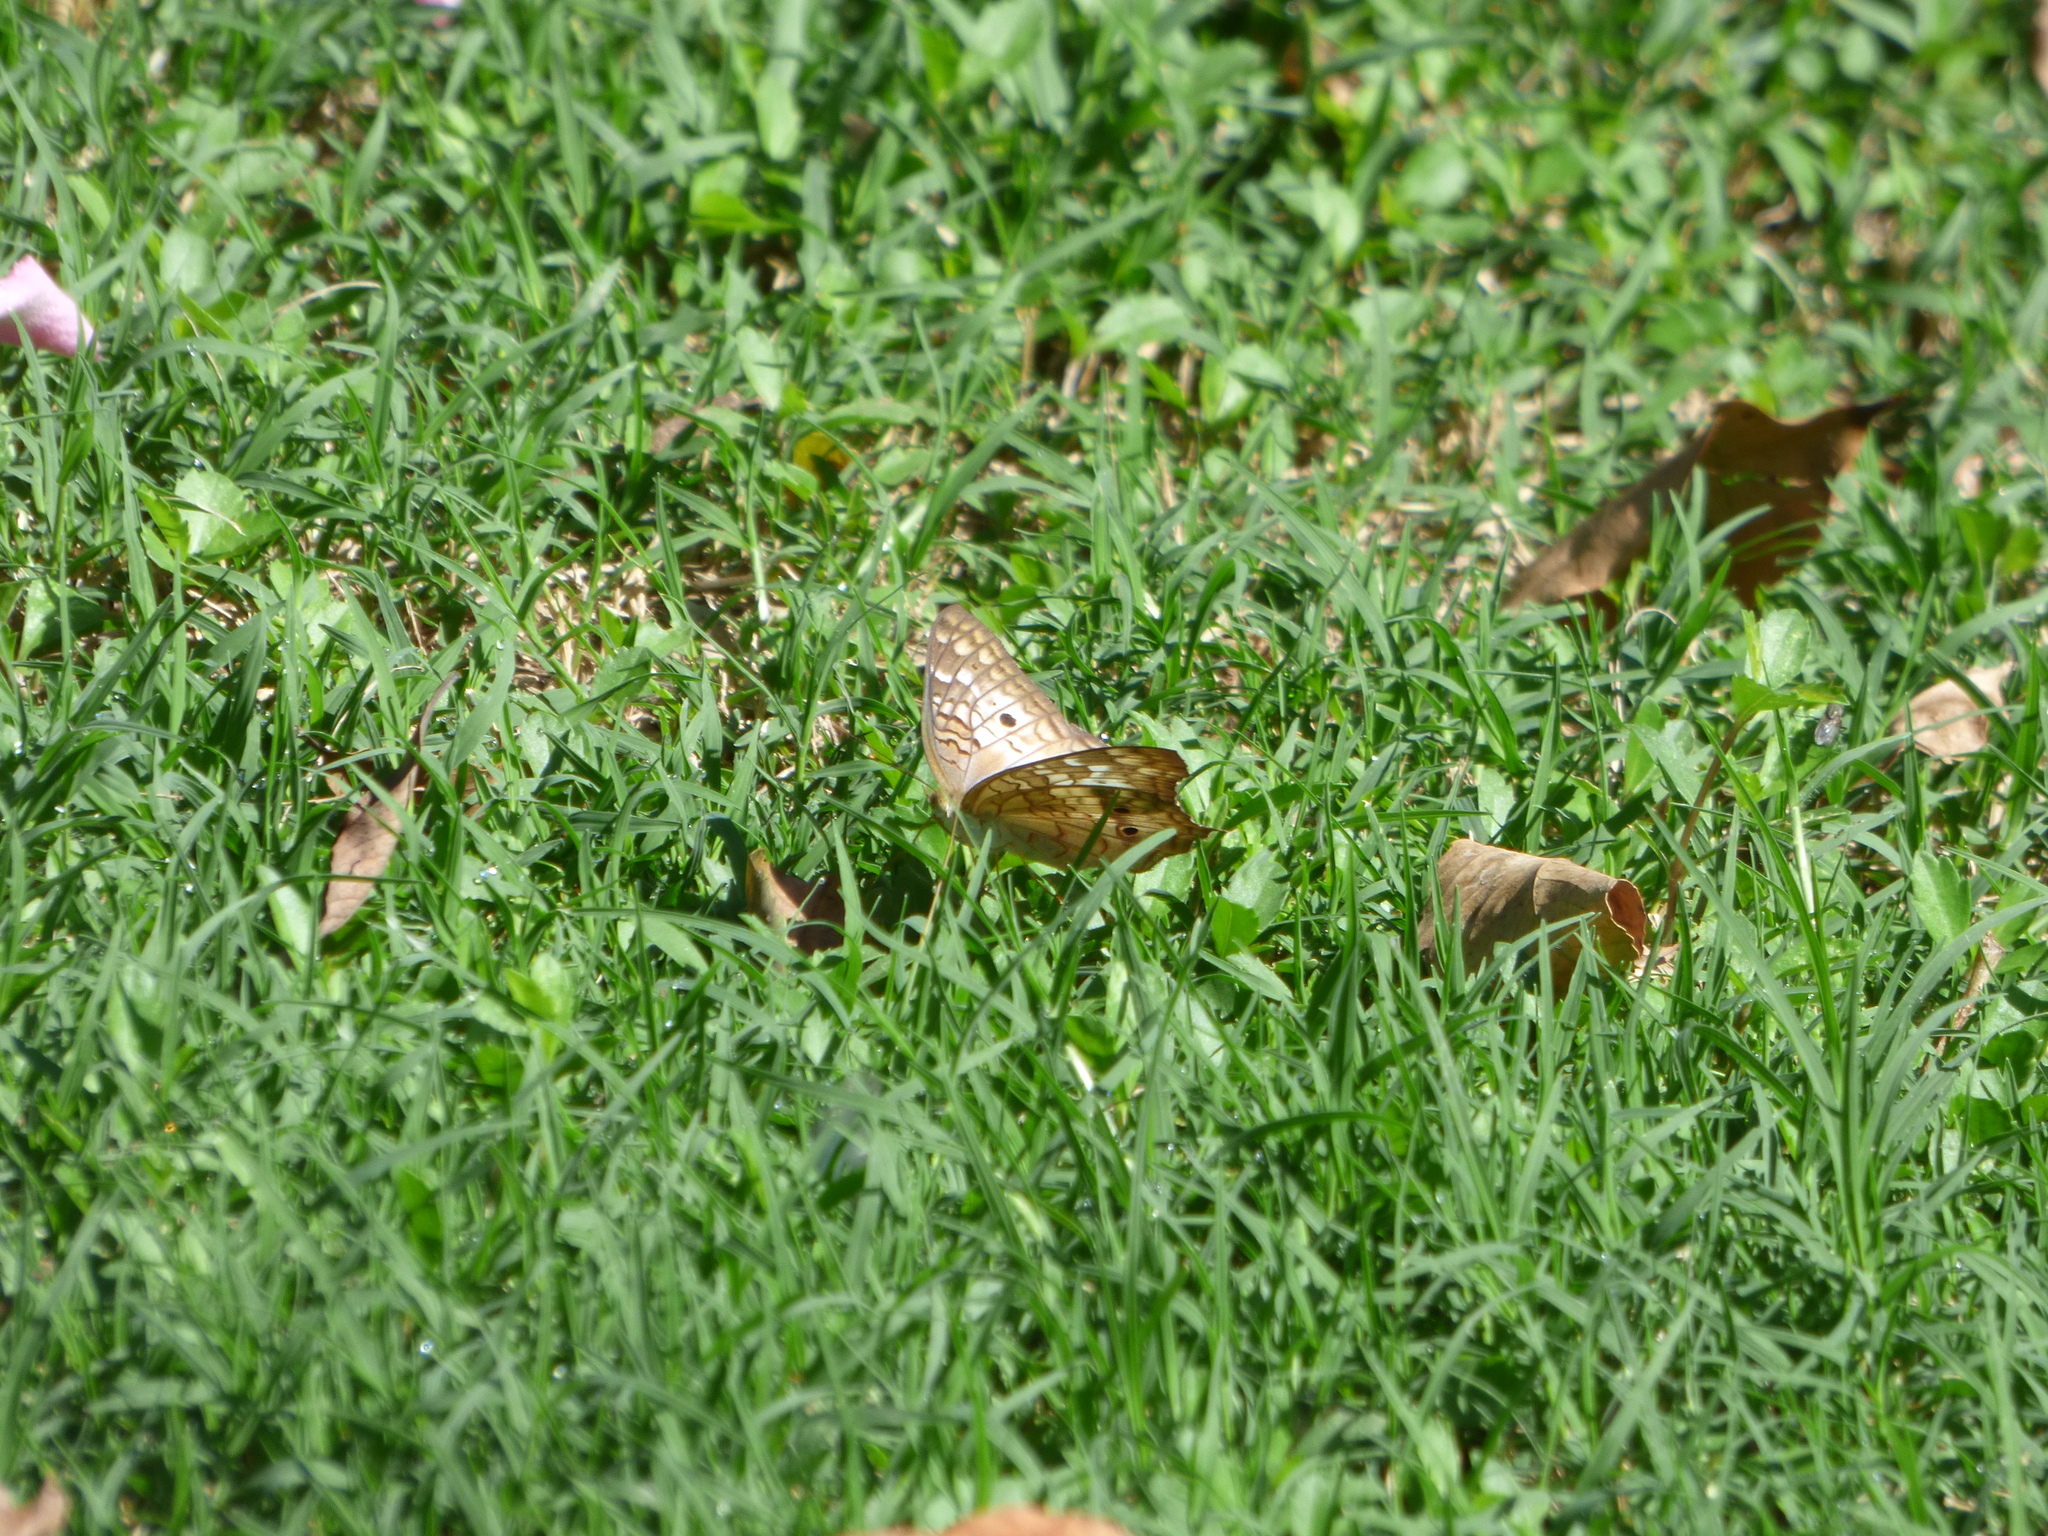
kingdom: Animalia
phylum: Arthropoda
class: Insecta
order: Lepidoptera
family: Nymphalidae
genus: Anartia
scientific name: Anartia jatrophae
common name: White peacock
